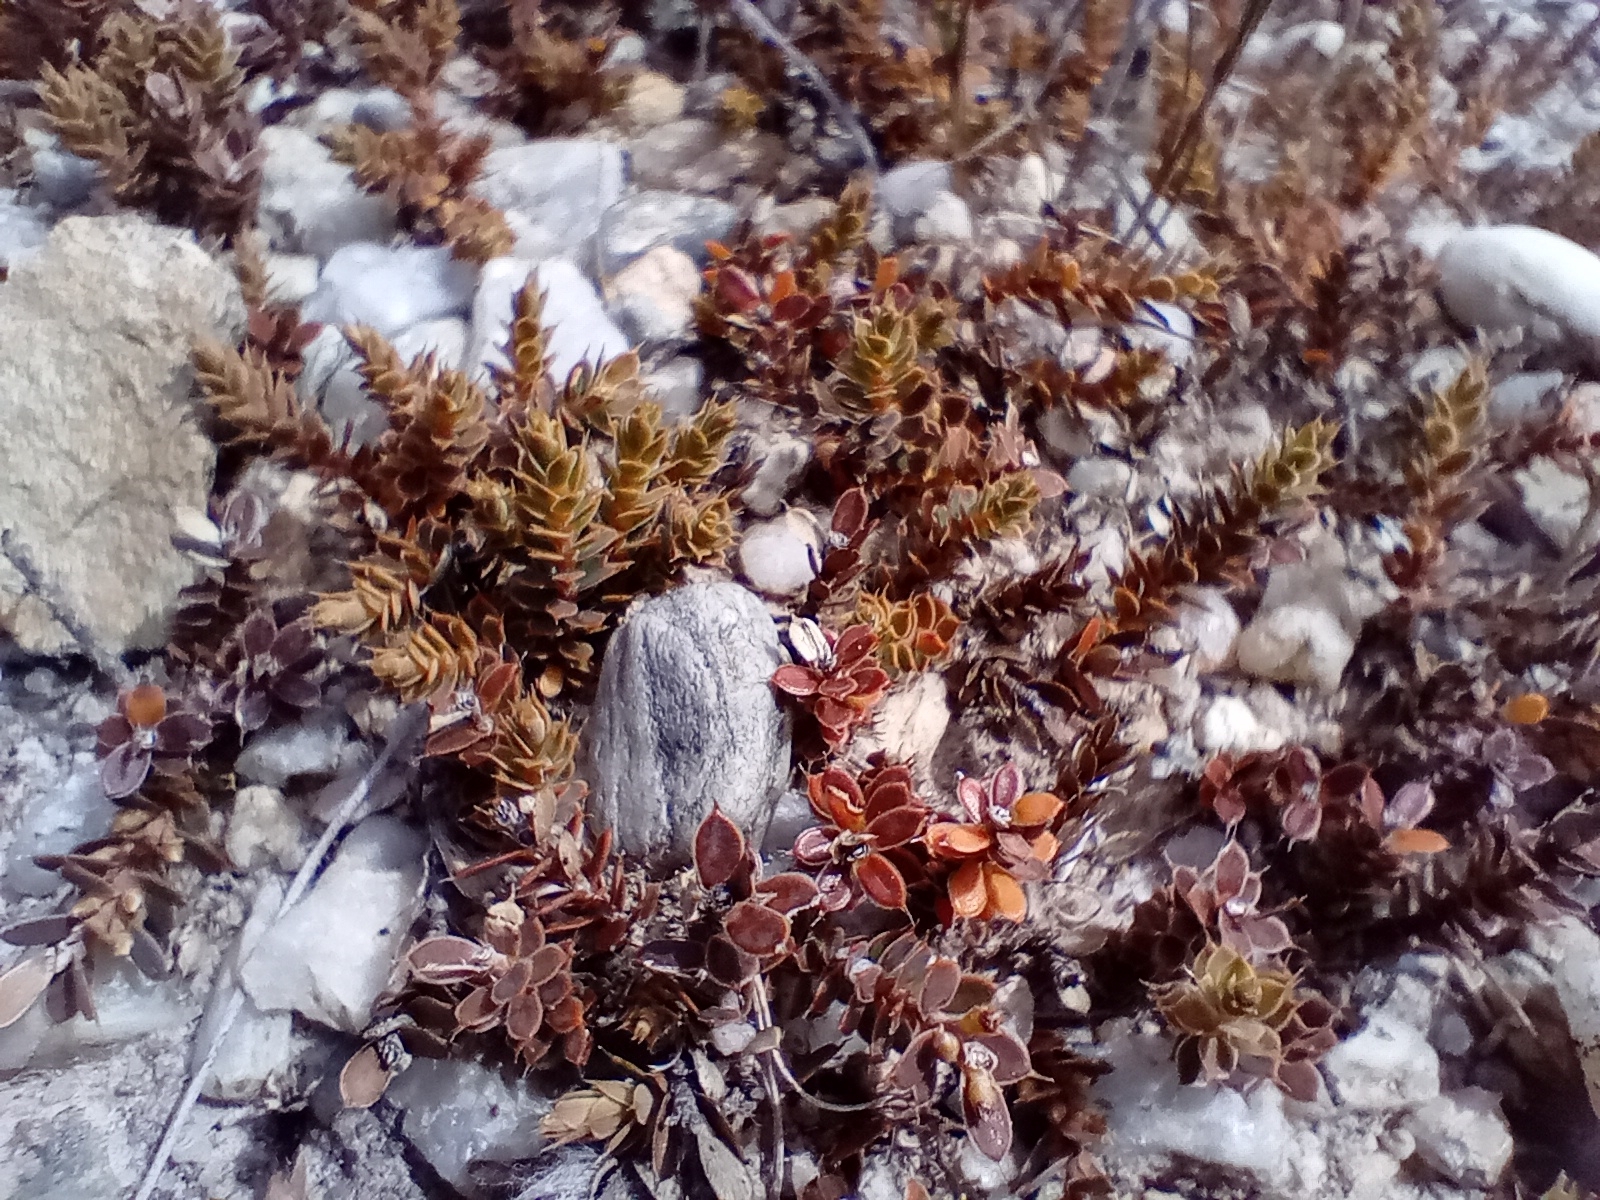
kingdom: Plantae
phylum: Tracheophyta
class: Magnoliopsida
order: Ericales
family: Ericaceae
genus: Styphelia
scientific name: Styphelia nesophila
